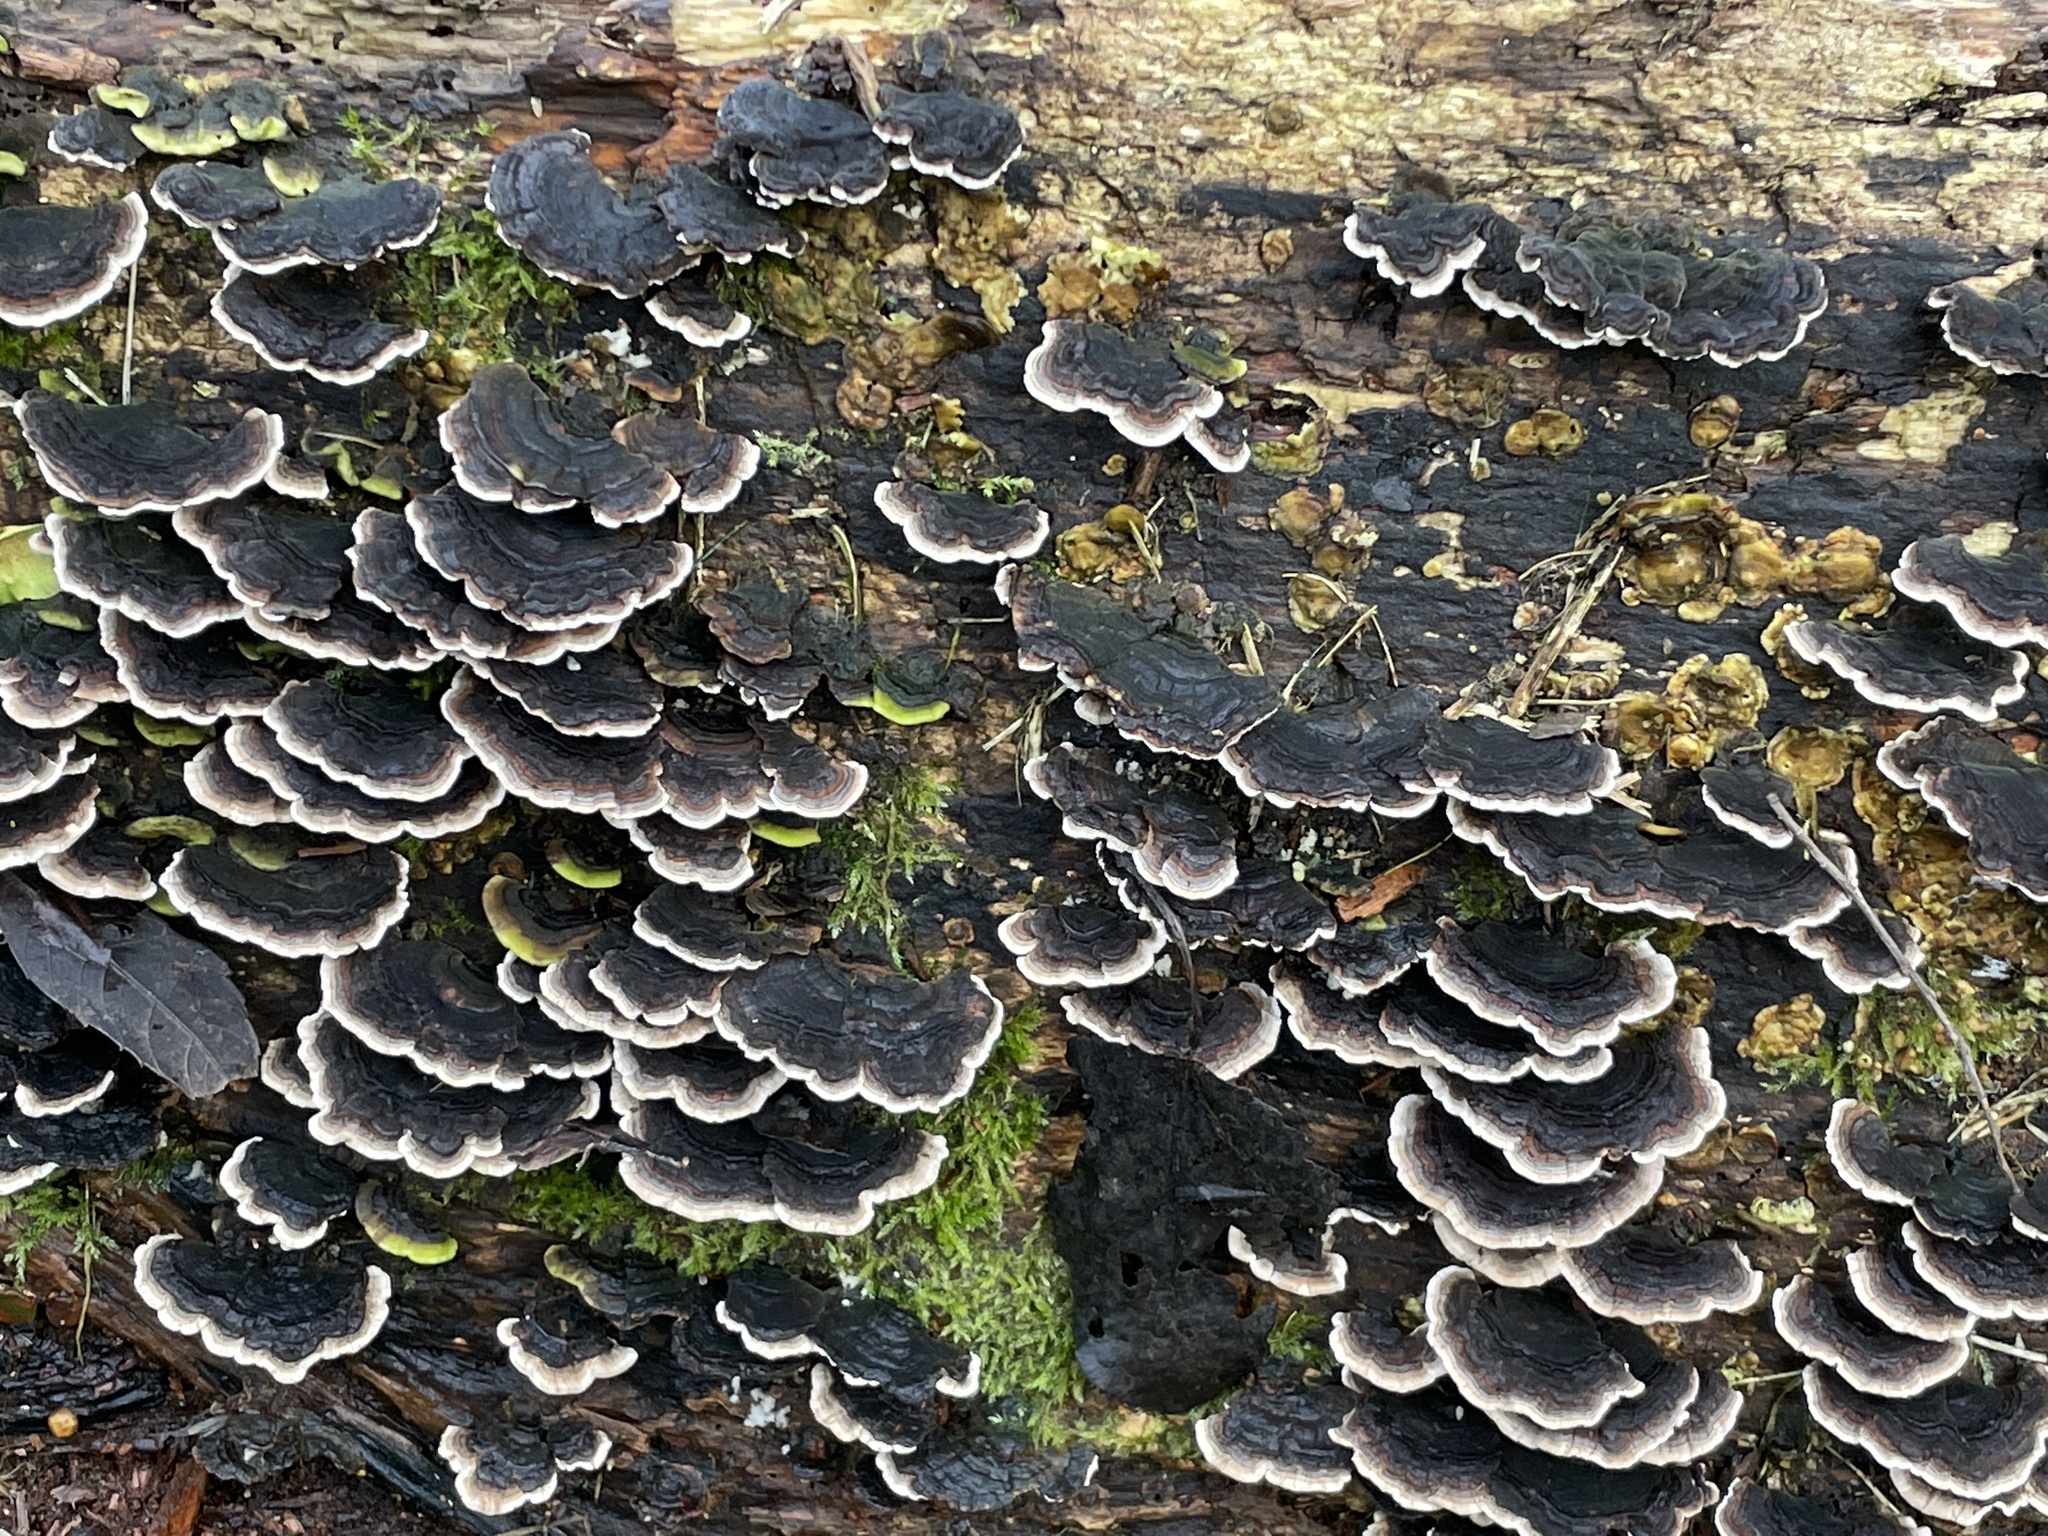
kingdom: Fungi
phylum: Basidiomycota
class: Agaricomycetes
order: Polyporales
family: Polyporaceae
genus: Trametes
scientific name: Trametes versicolor
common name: Turkeytail
